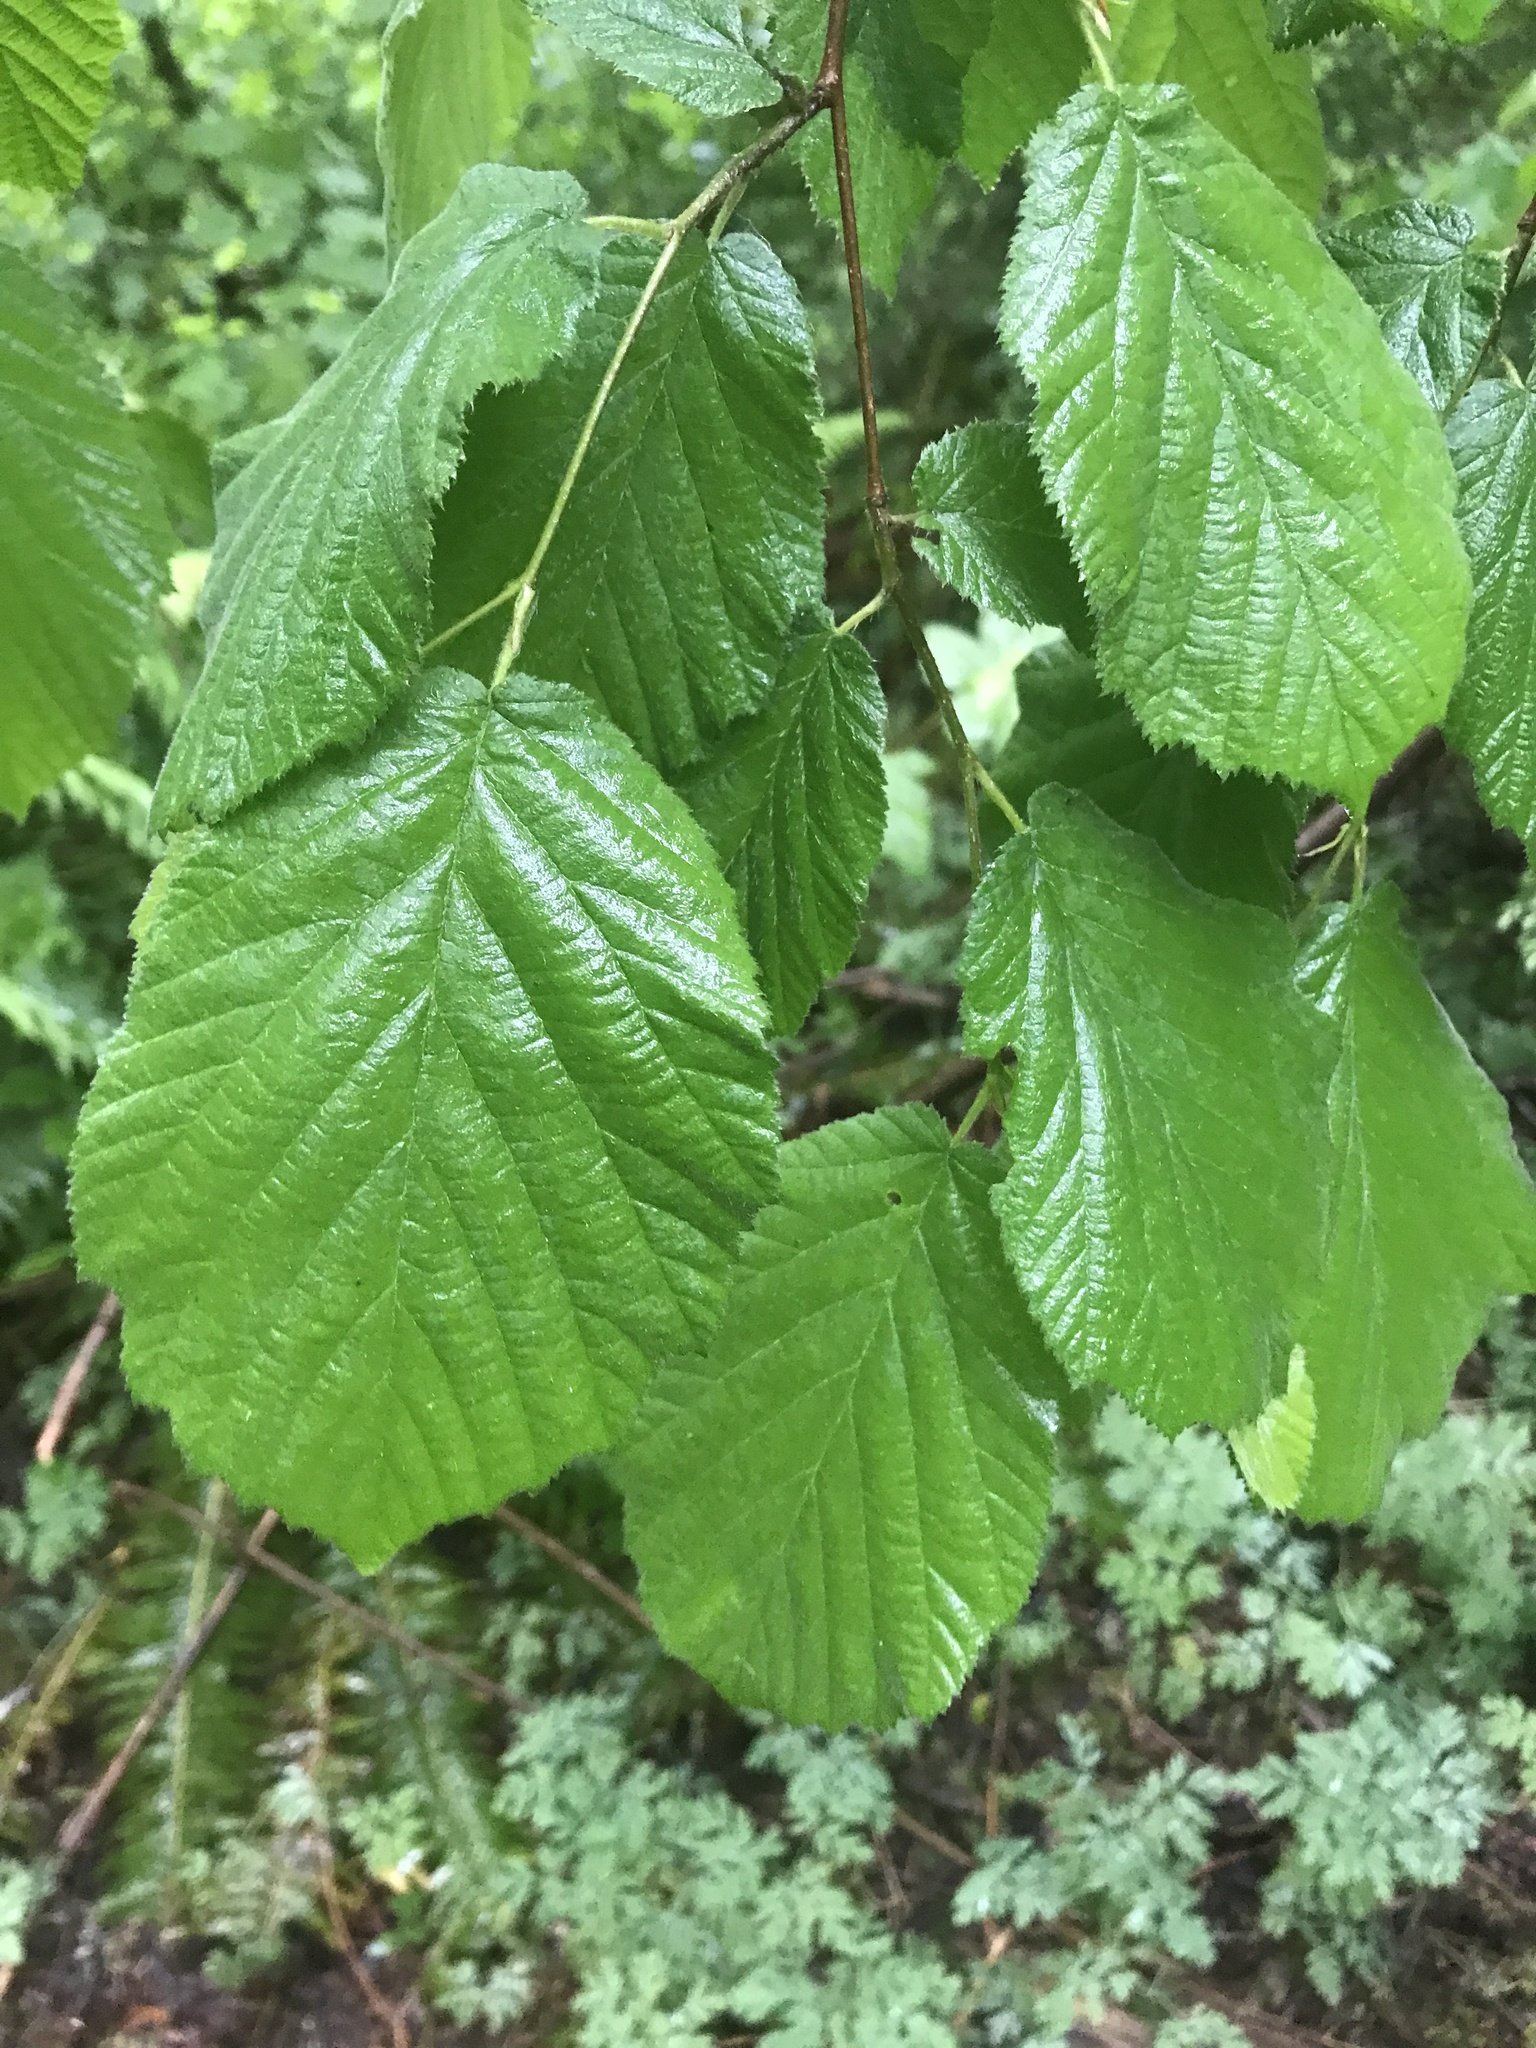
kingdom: Plantae
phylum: Tracheophyta
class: Magnoliopsida
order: Fagales
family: Betulaceae
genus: Corylus
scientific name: Corylus cornuta
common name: Beaked hazel
